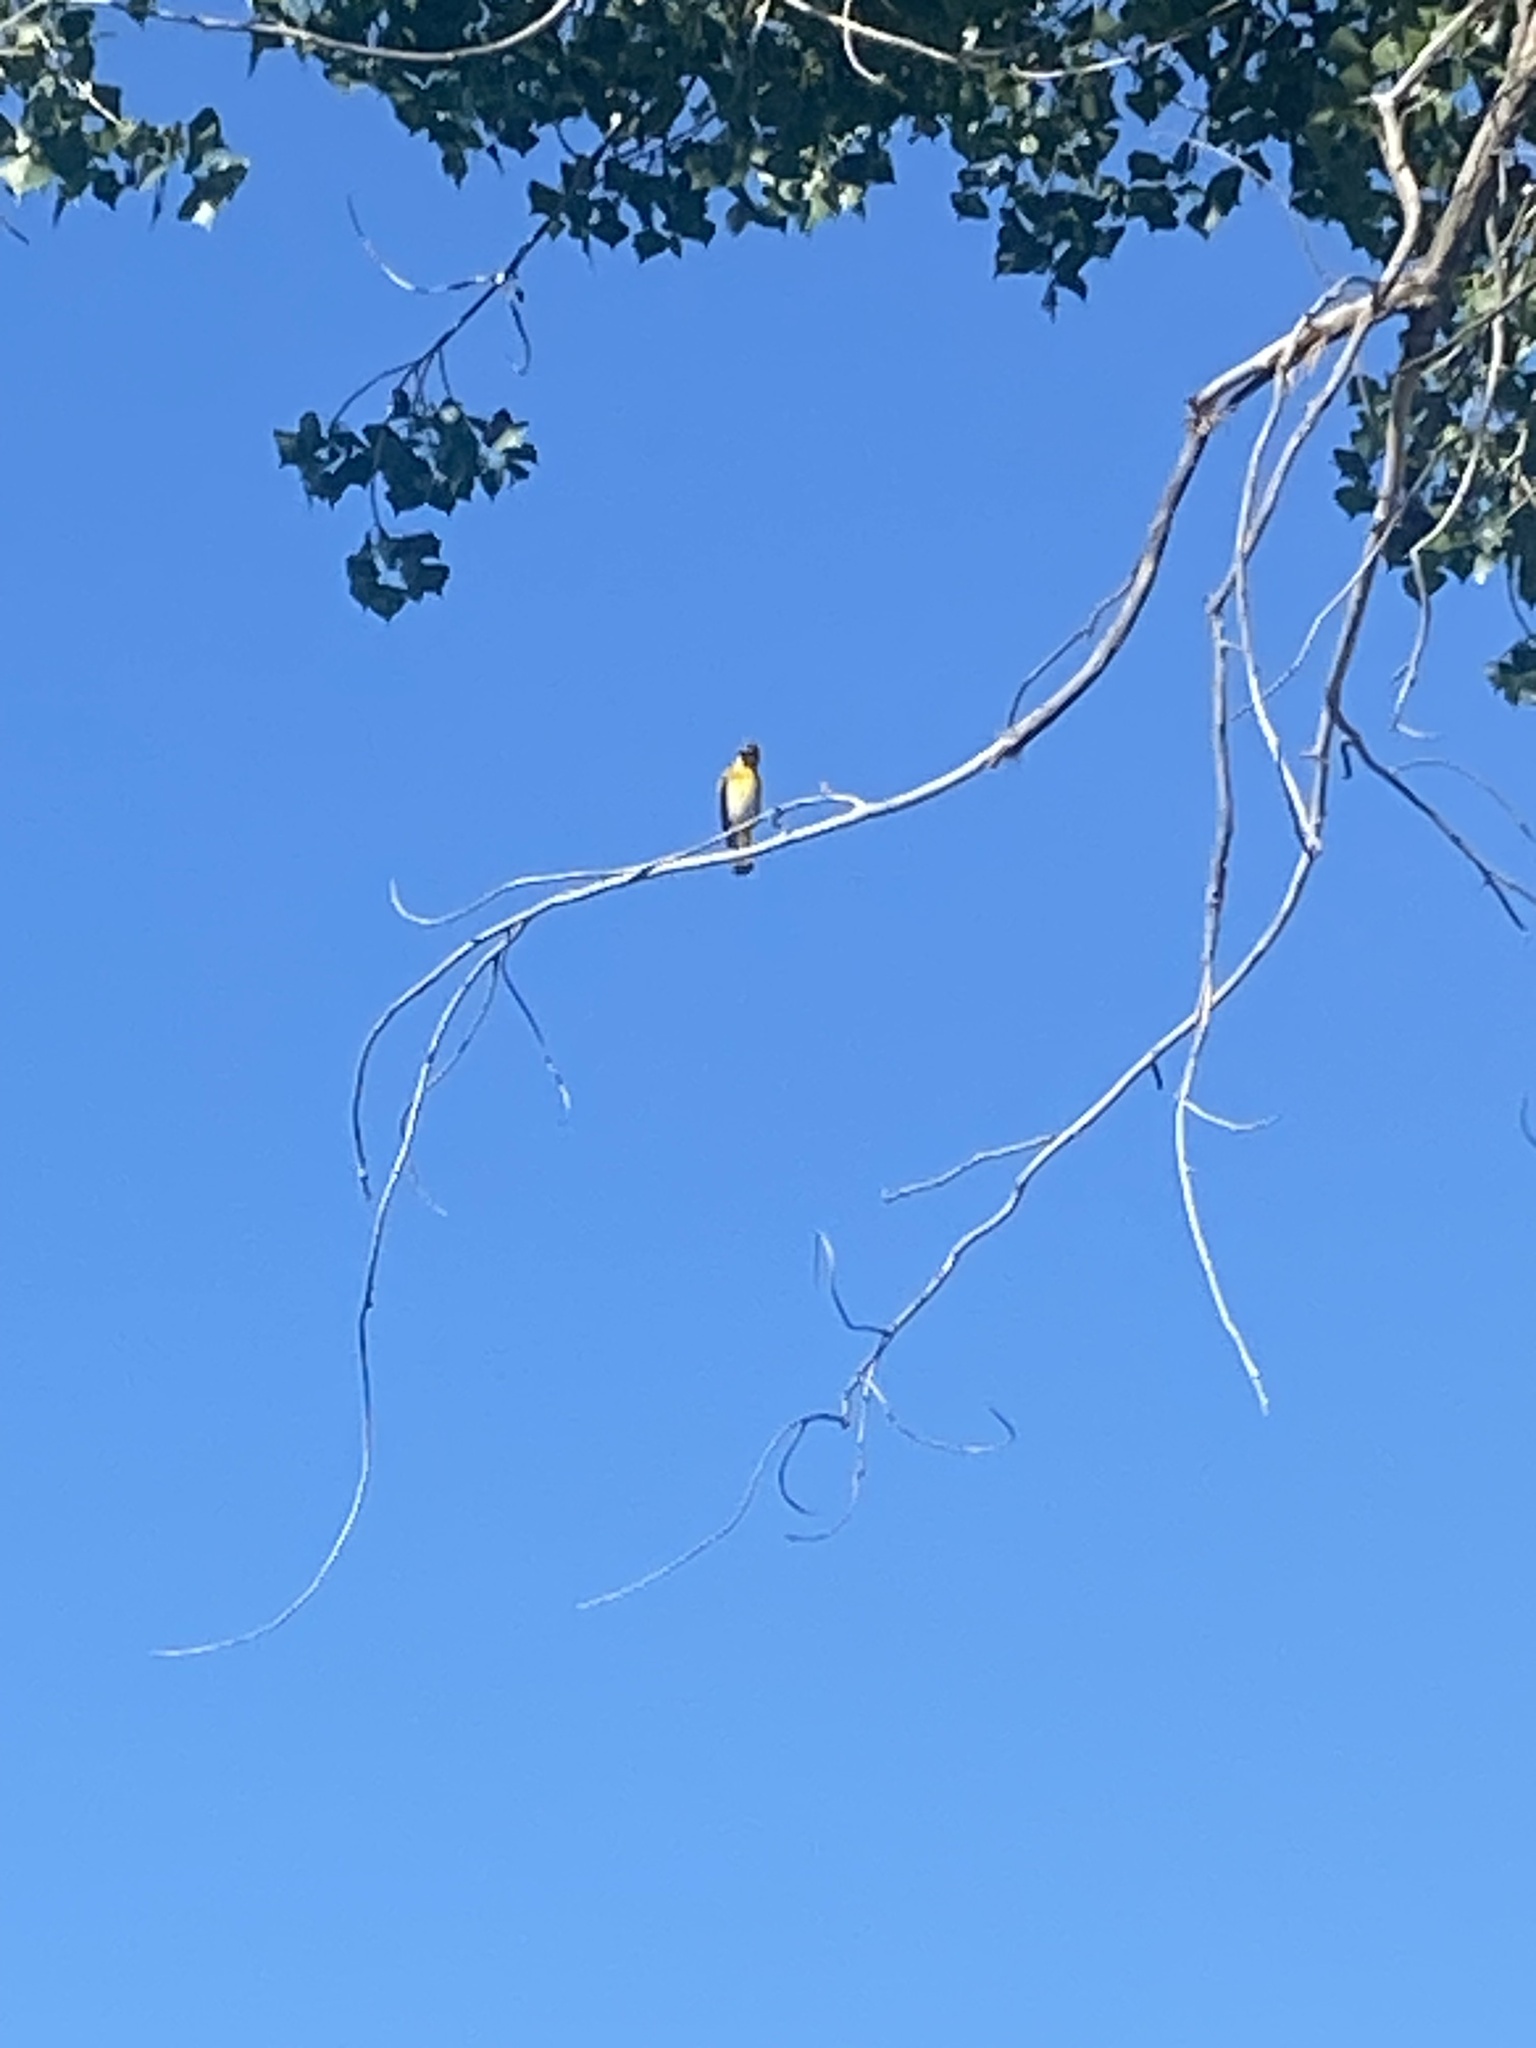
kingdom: Animalia
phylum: Chordata
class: Aves
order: Passeriformes
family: Icteridae
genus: Icterus
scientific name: Icterus bullockii
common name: Bullock's oriole
